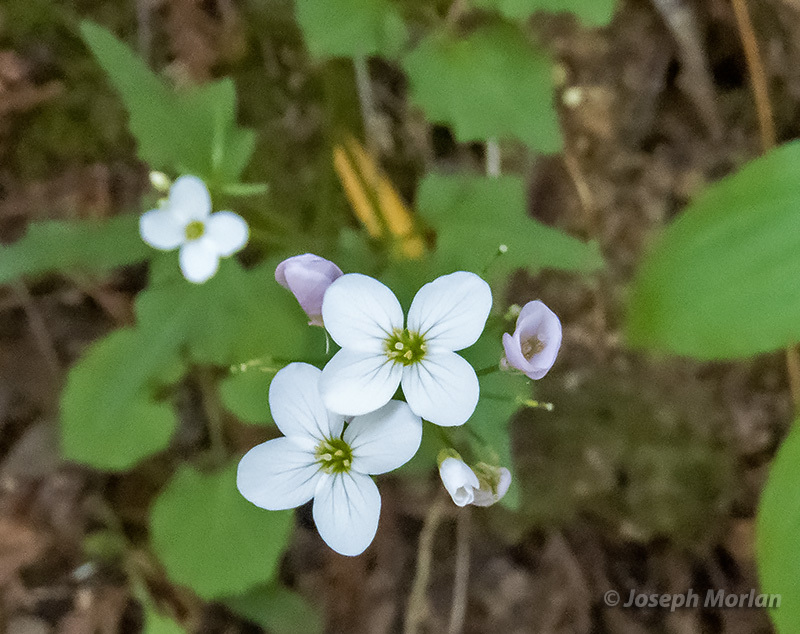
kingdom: Plantae
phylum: Tracheophyta
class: Magnoliopsida
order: Brassicales
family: Brassicaceae
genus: Cardamine
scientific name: Cardamine californica
